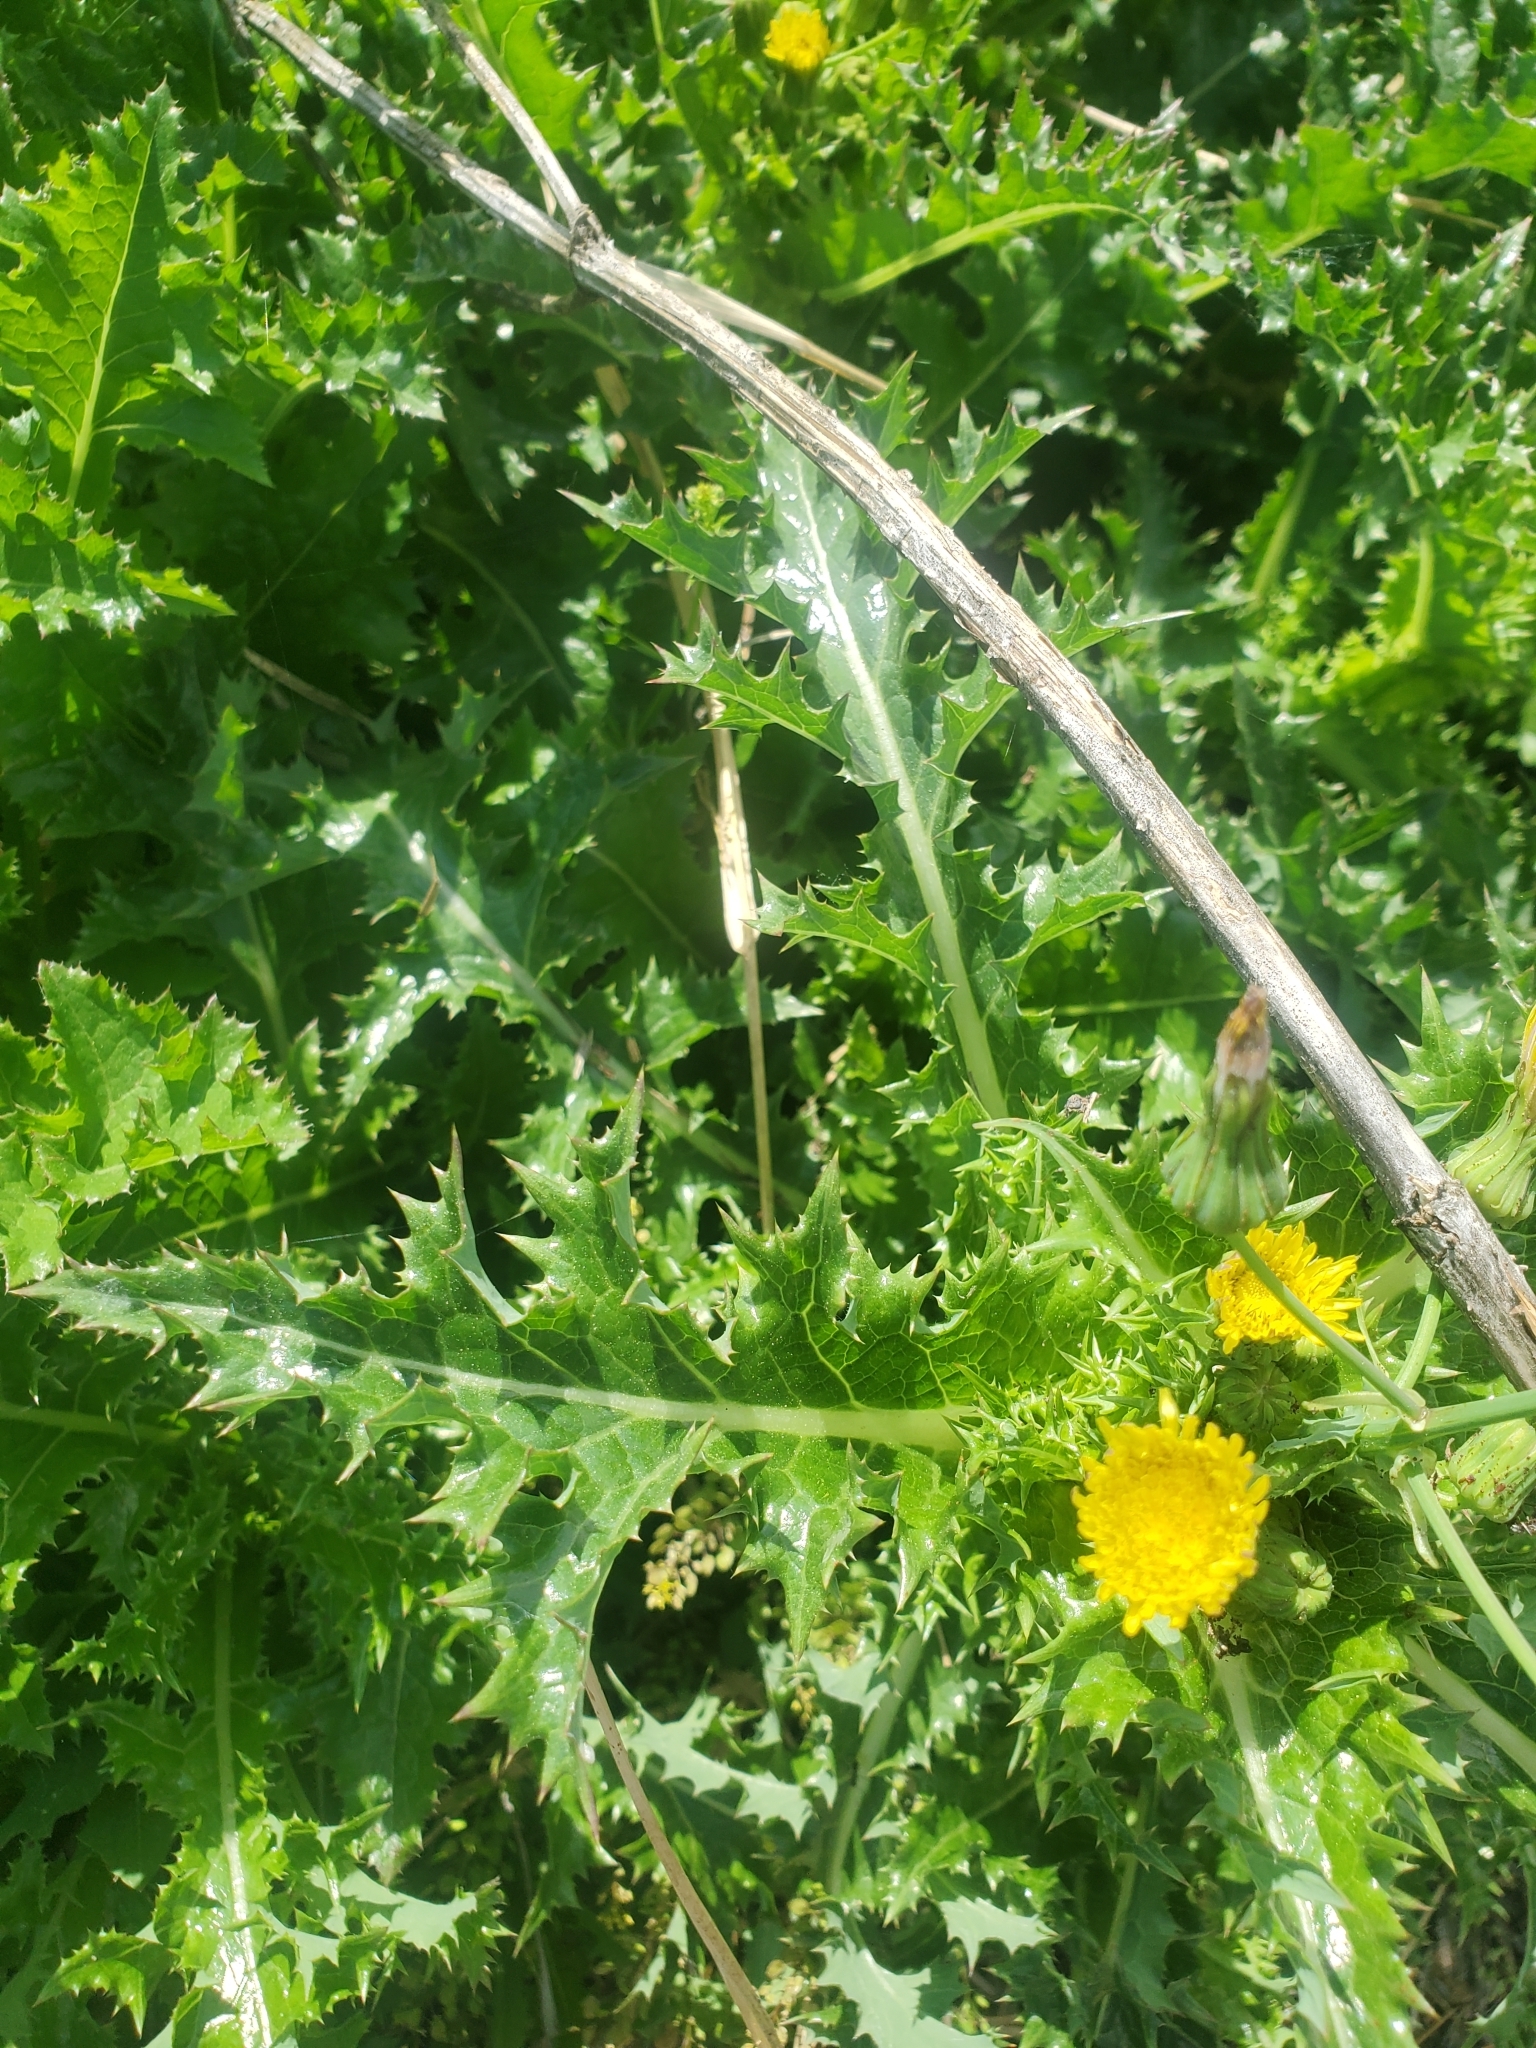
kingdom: Plantae
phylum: Tracheophyta
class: Magnoliopsida
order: Asterales
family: Asteraceae
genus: Sonchus
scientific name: Sonchus asper
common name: Prickly sow-thistle
